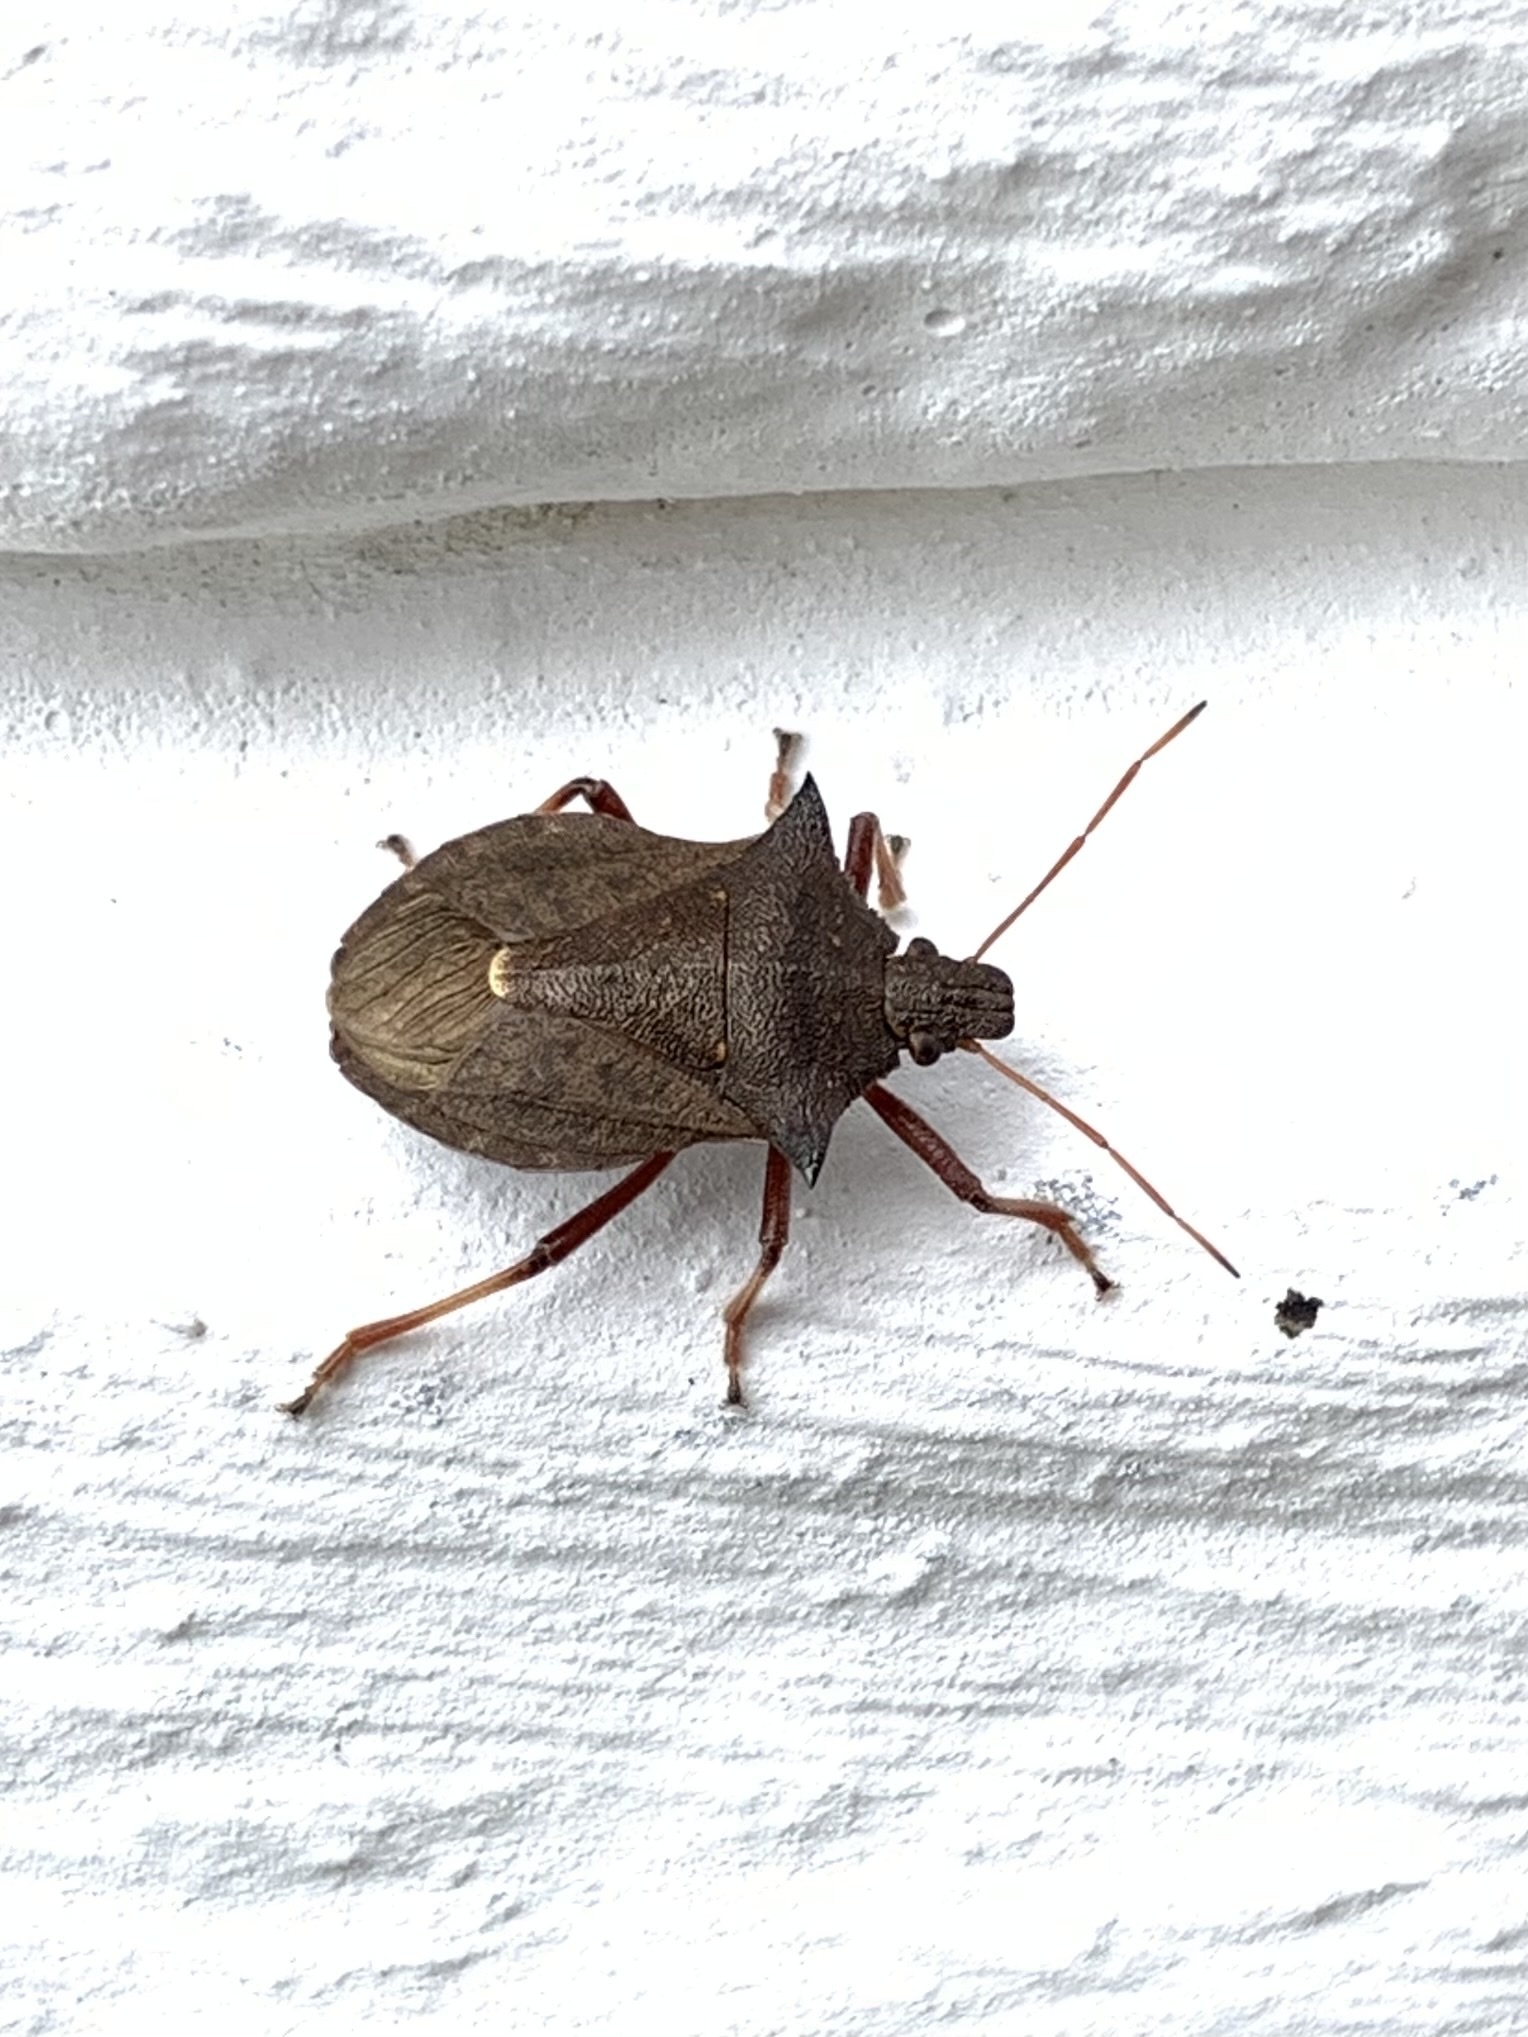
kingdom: Animalia
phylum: Arthropoda
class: Insecta
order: Hemiptera
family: Pentatomidae
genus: Picromerus
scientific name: Picromerus bidens
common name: Spiked shieldbug
